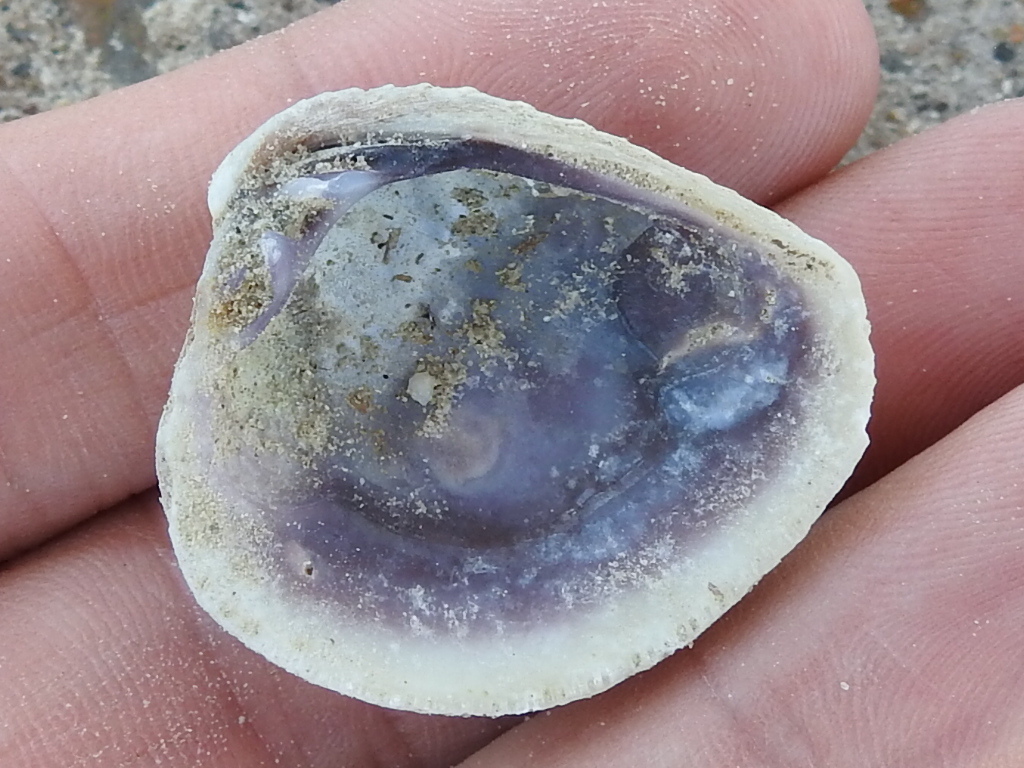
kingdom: Animalia
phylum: Mollusca
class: Bivalvia
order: Venerida
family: Veneridae
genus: Chione
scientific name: Chione elevata
